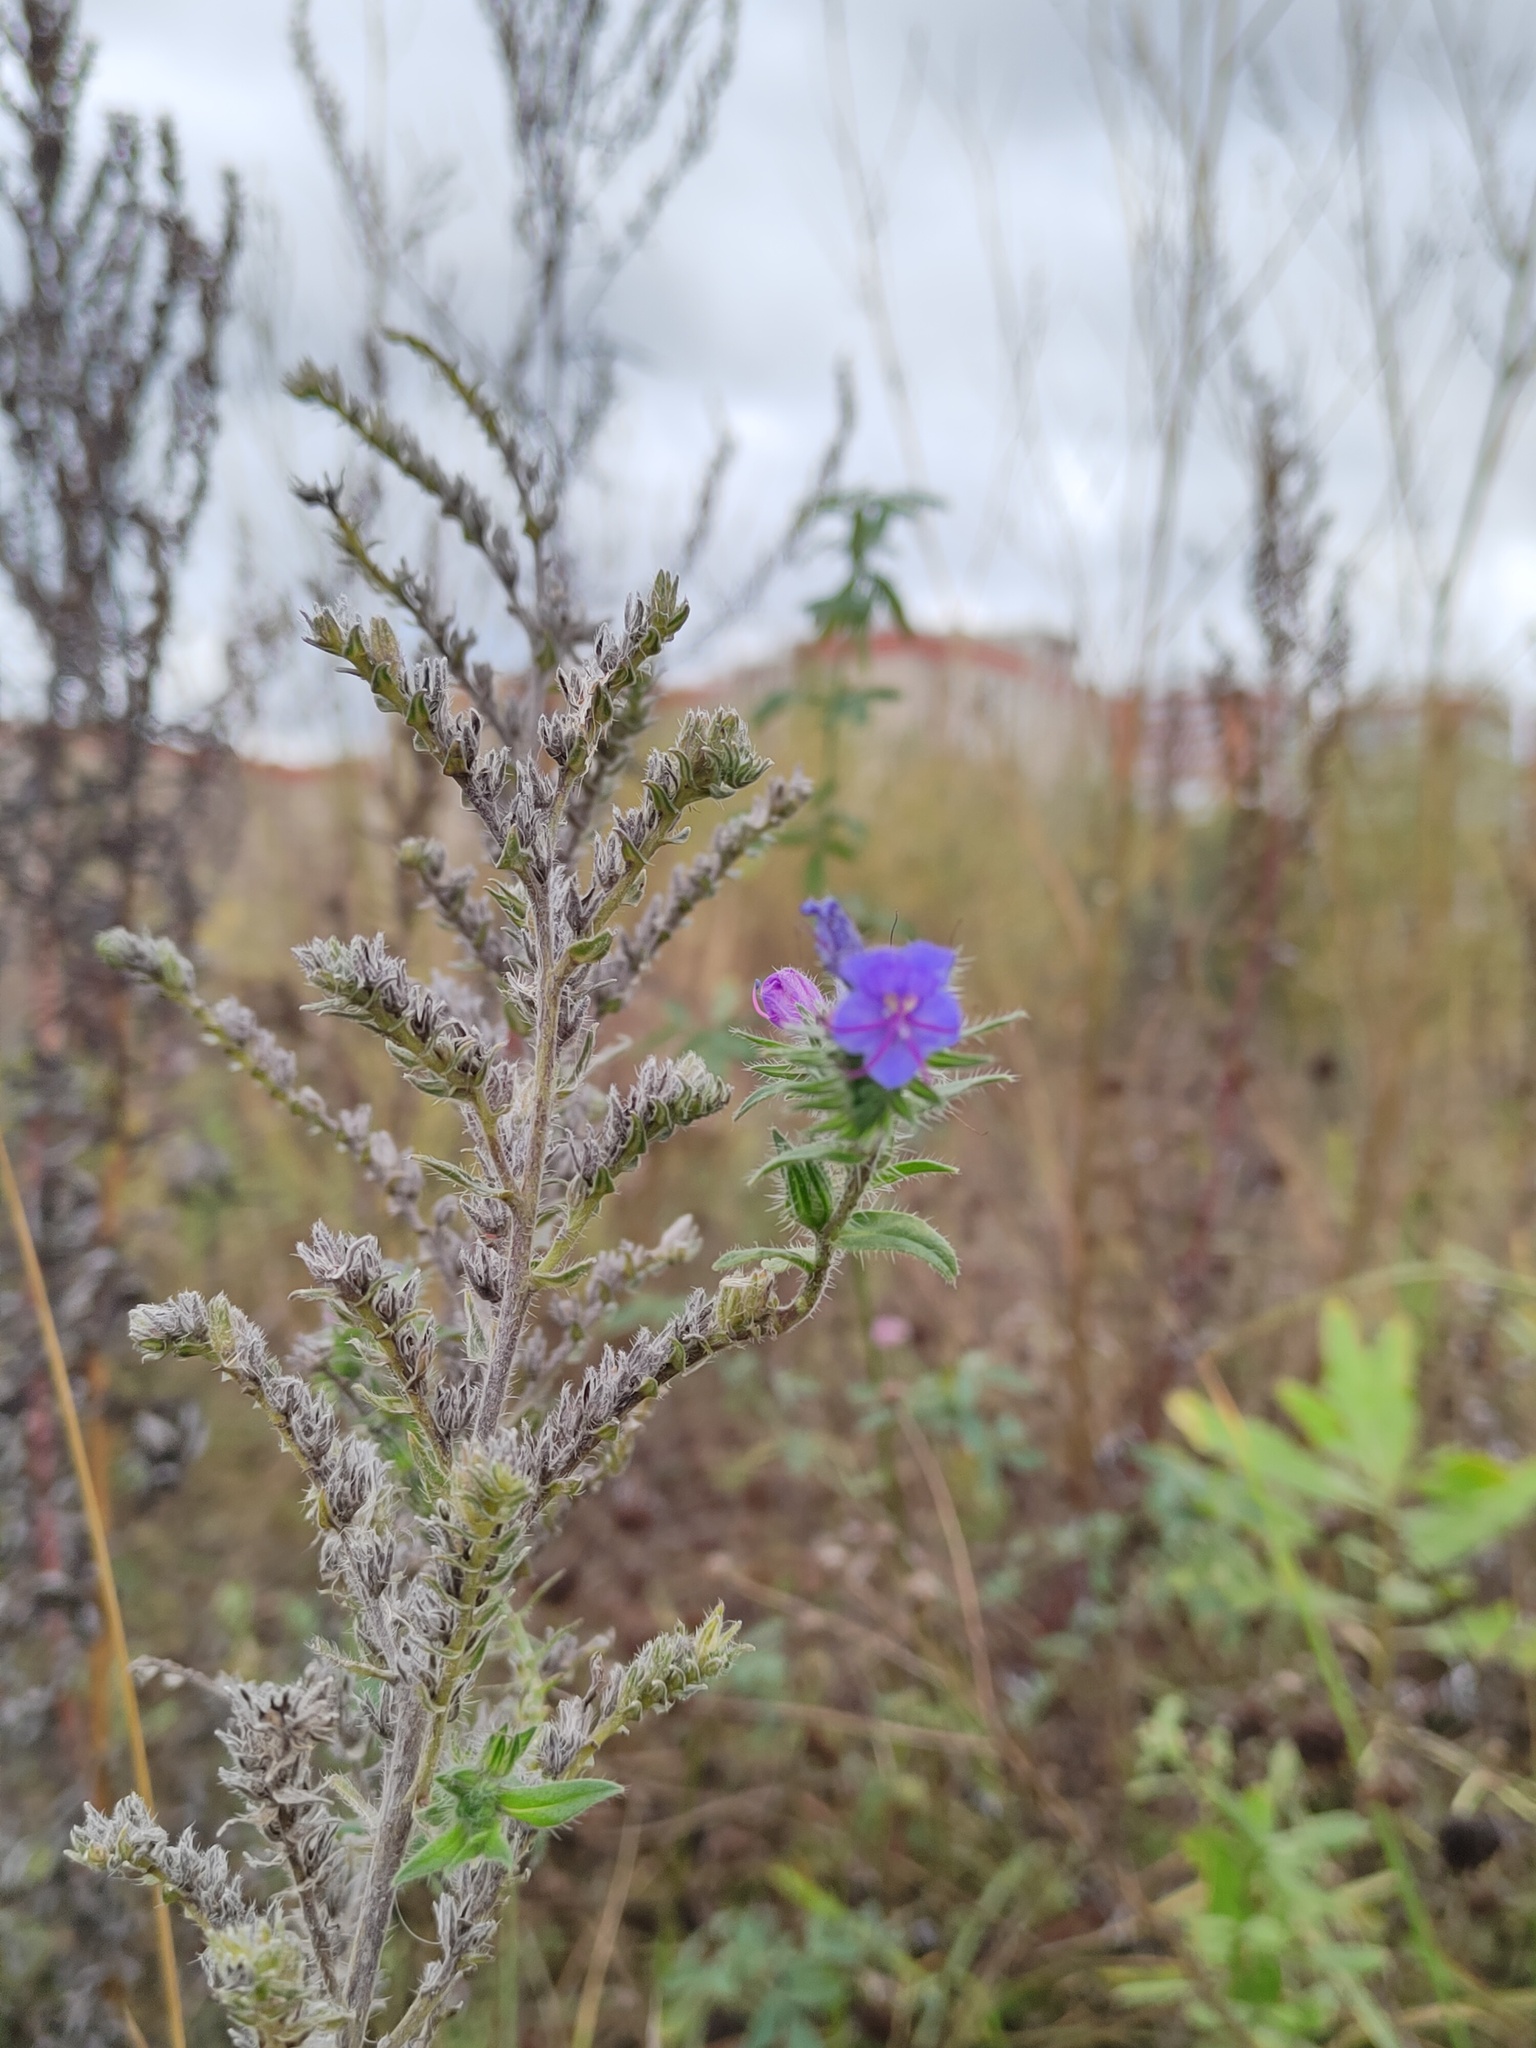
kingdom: Plantae
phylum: Tracheophyta
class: Magnoliopsida
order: Boraginales
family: Boraginaceae
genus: Echium
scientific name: Echium vulgare
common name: Common viper's bugloss
